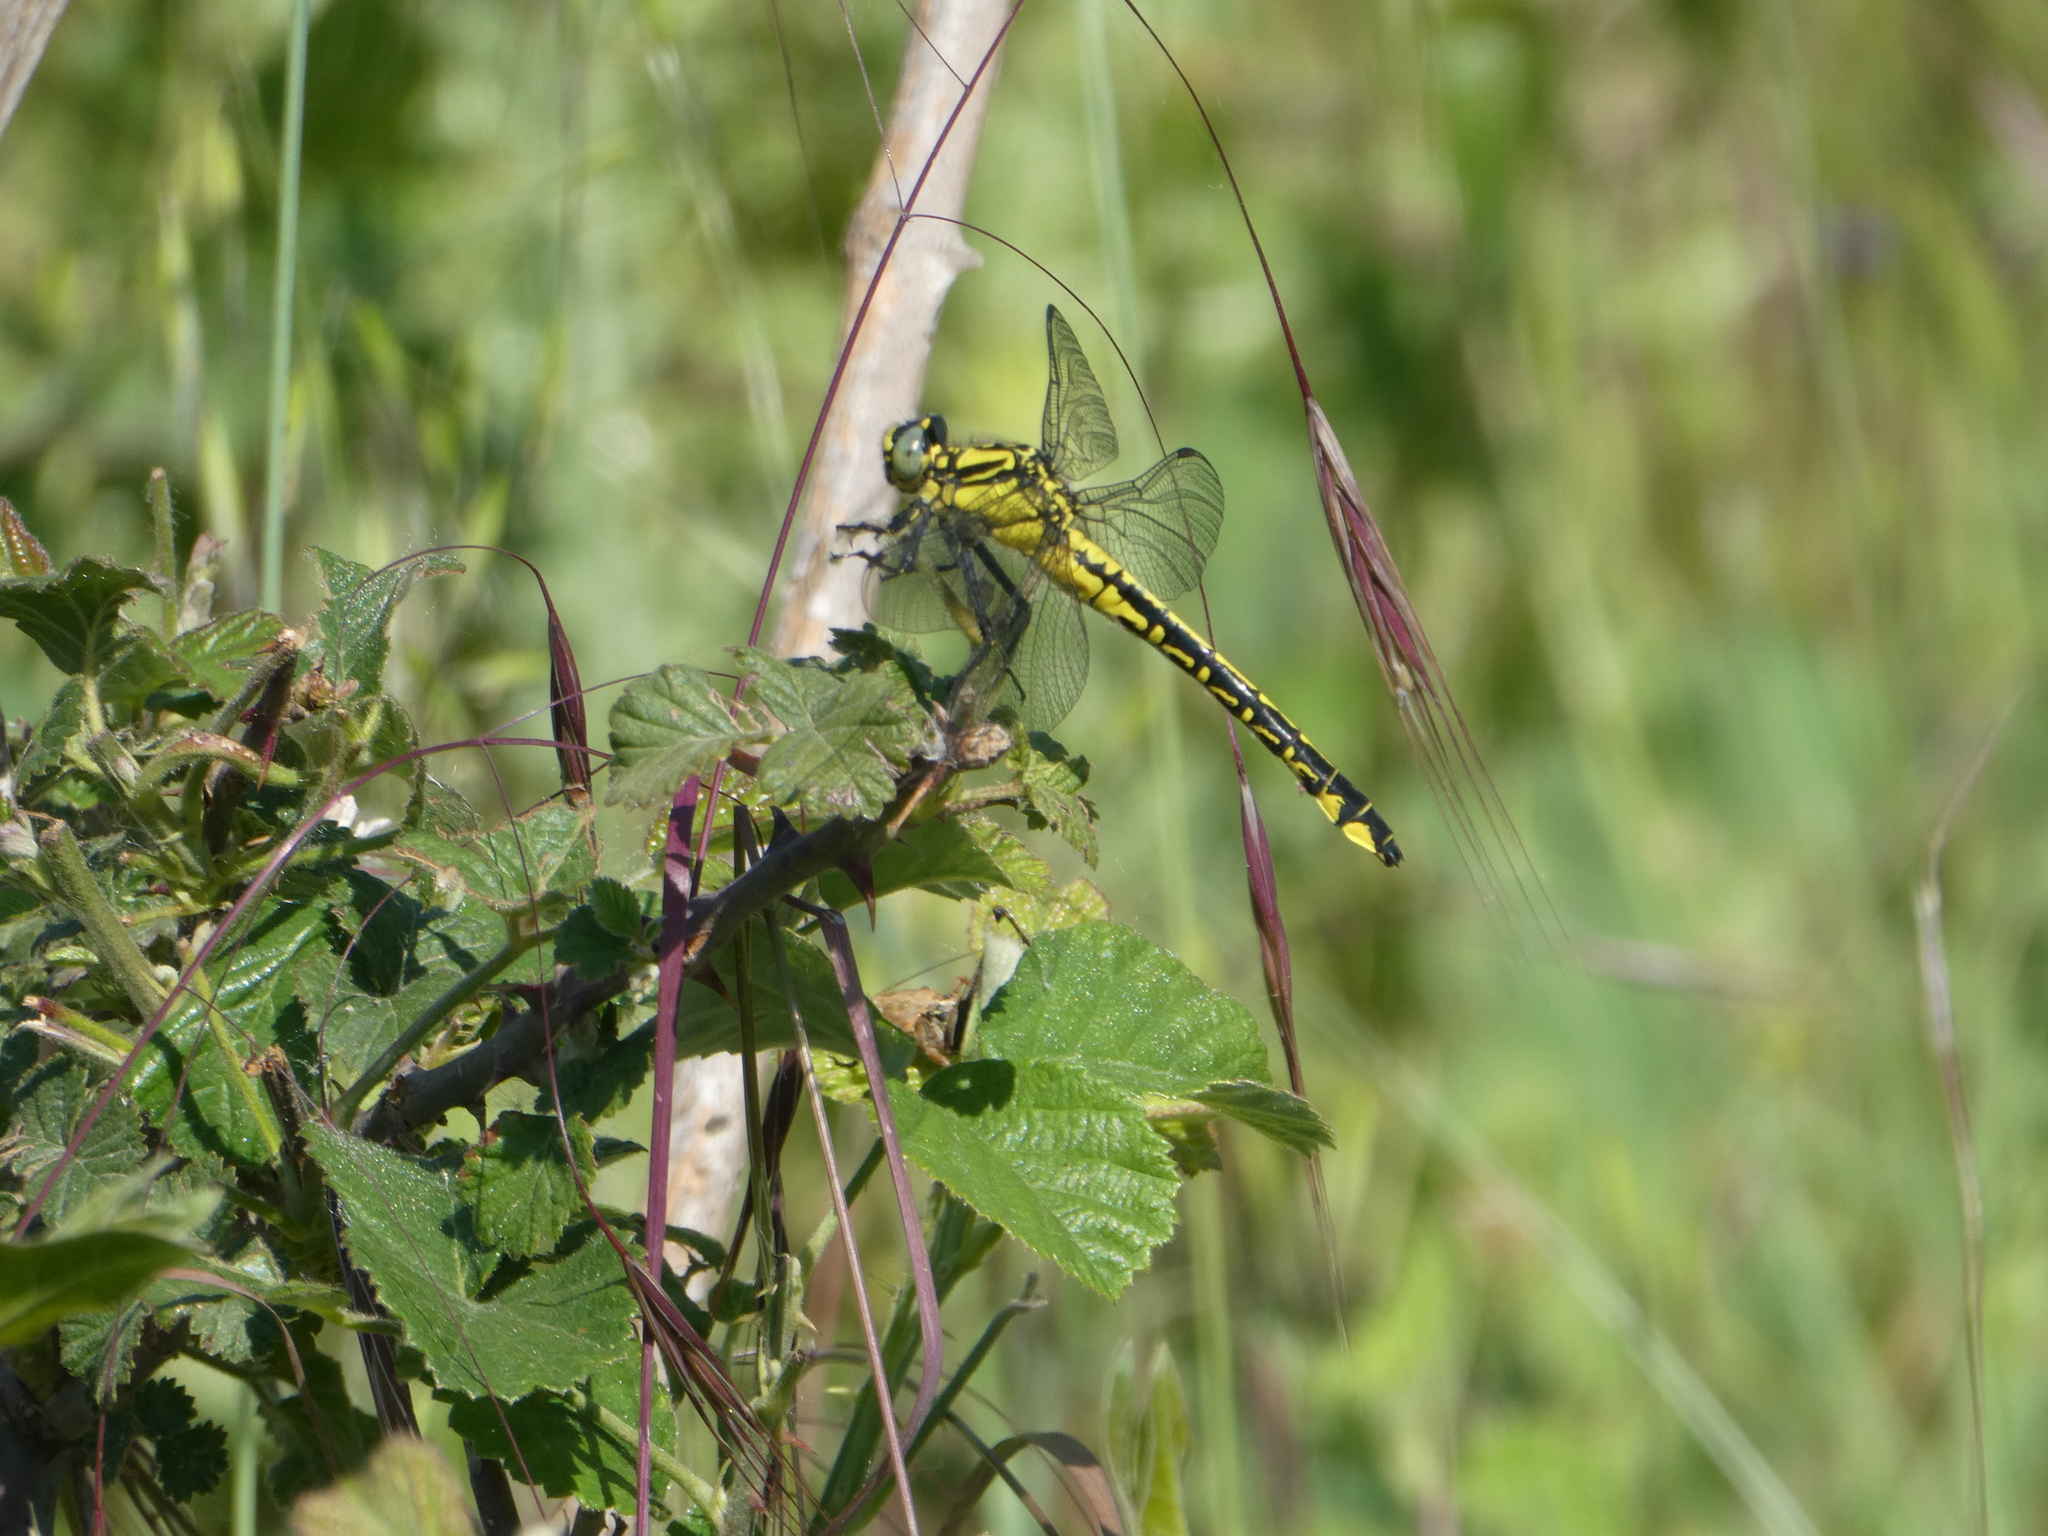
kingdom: Animalia
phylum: Arthropoda
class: Insecta
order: Odonata
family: Gomphidae
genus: Gomphus
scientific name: Gomphus vulgatissimus
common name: Club-tailed dragonfly
